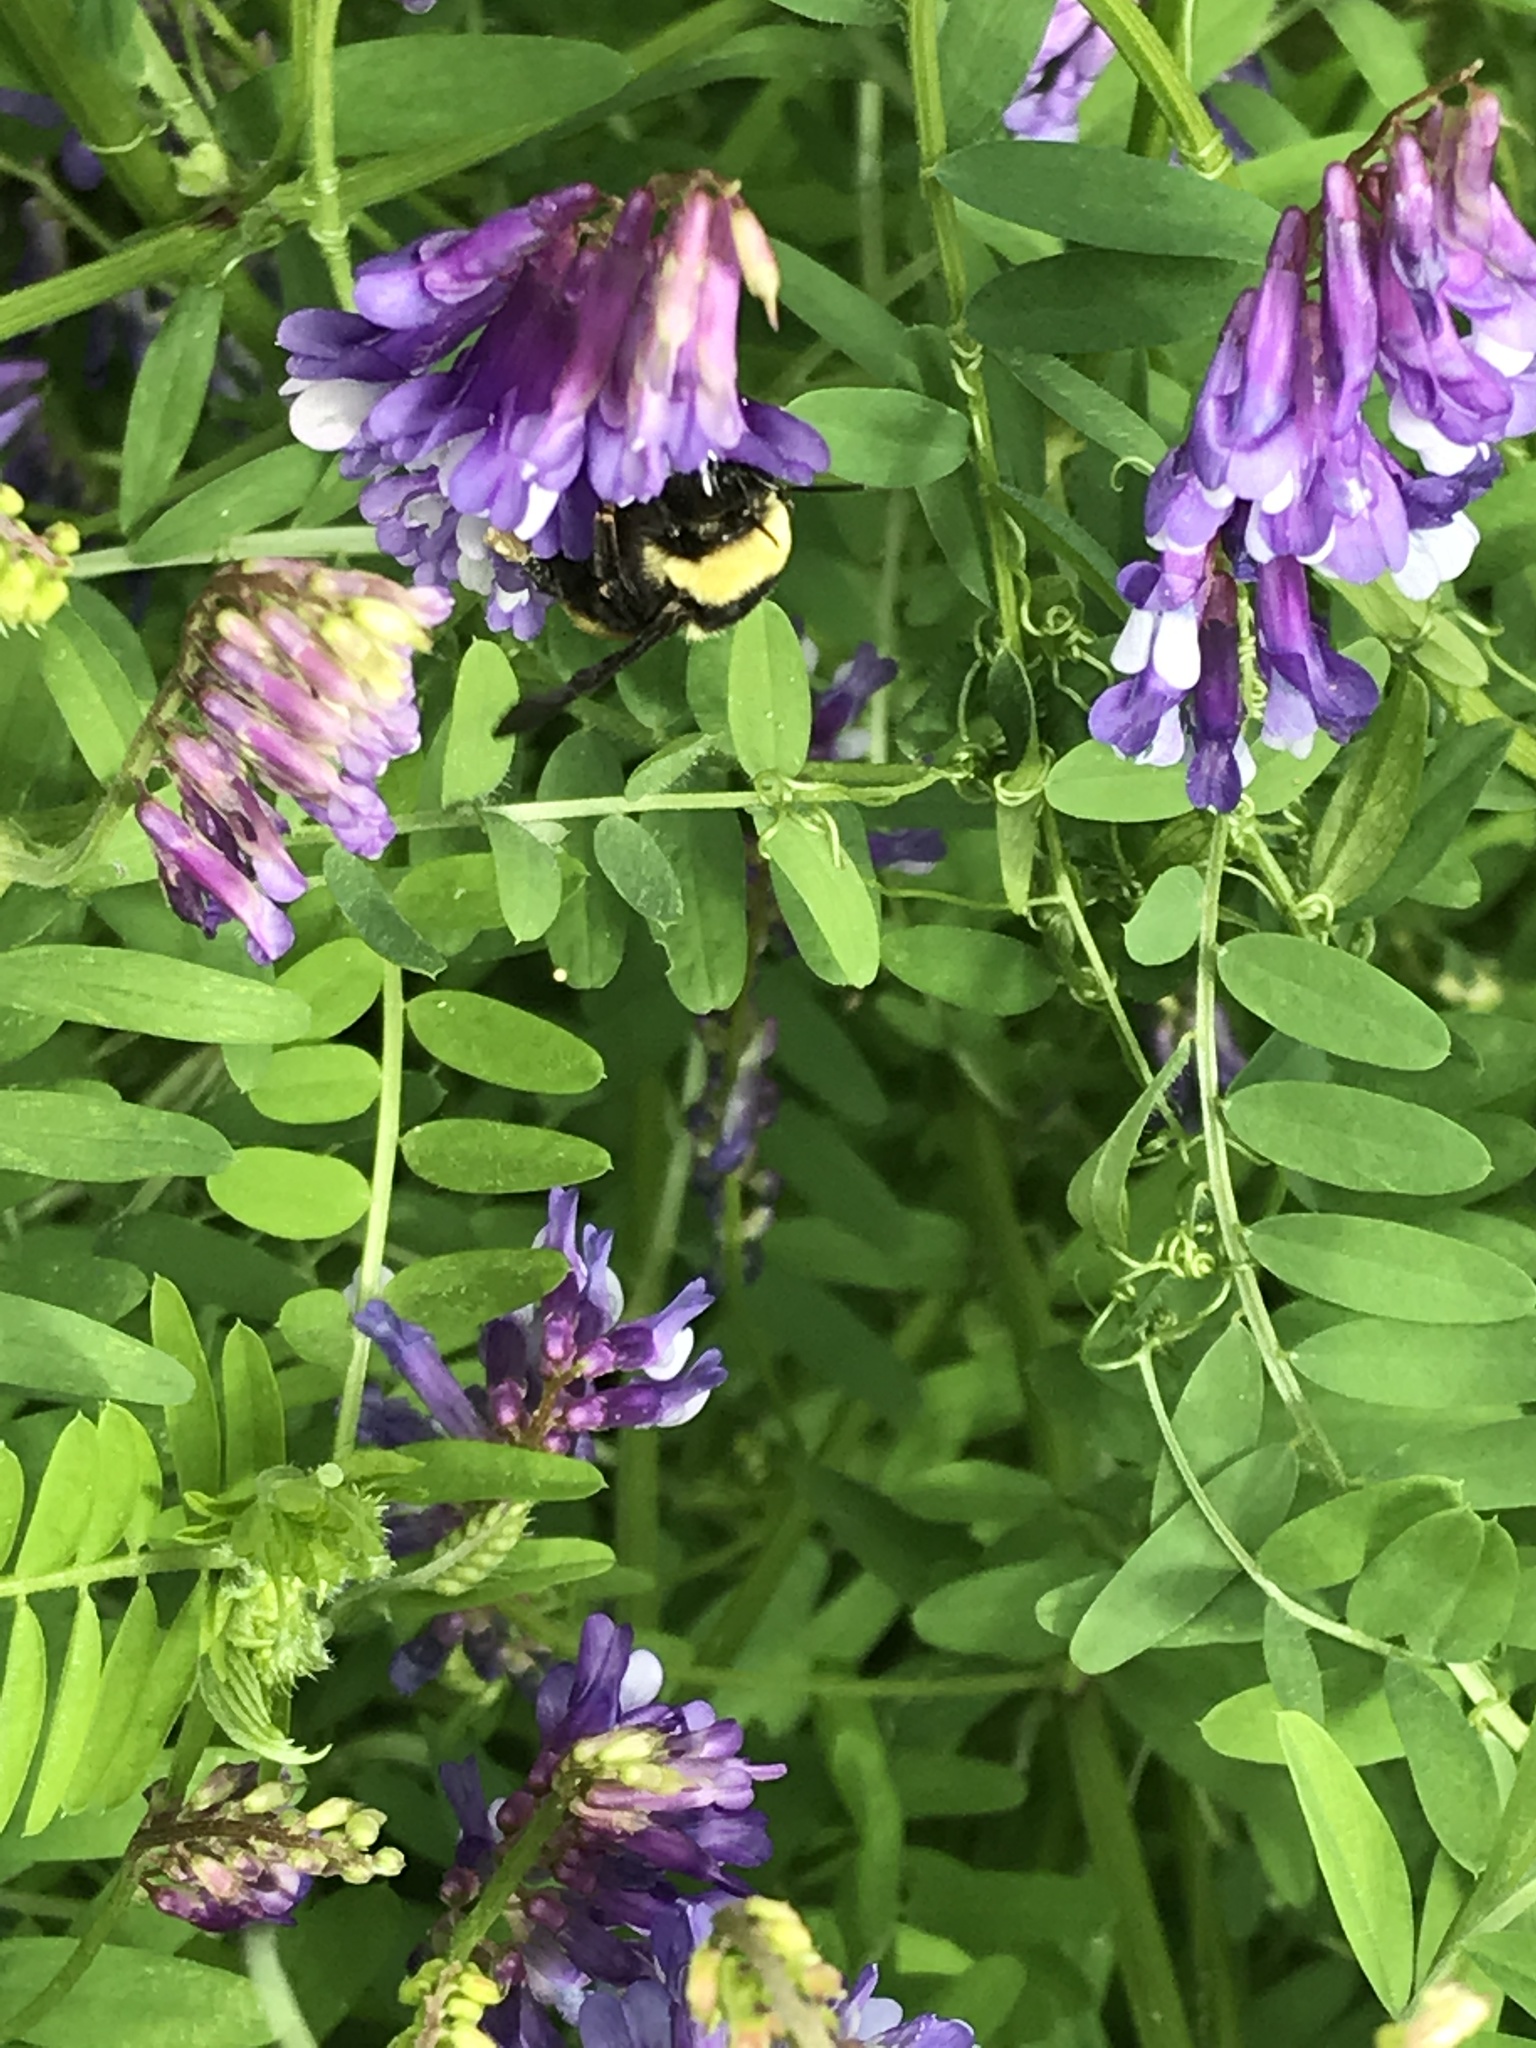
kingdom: Plantae
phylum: Tracheophyta
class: Magnoliopsida
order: Fabales
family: Fabaceae
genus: Vicia
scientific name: Vicia villosa
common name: Fodder vetch
